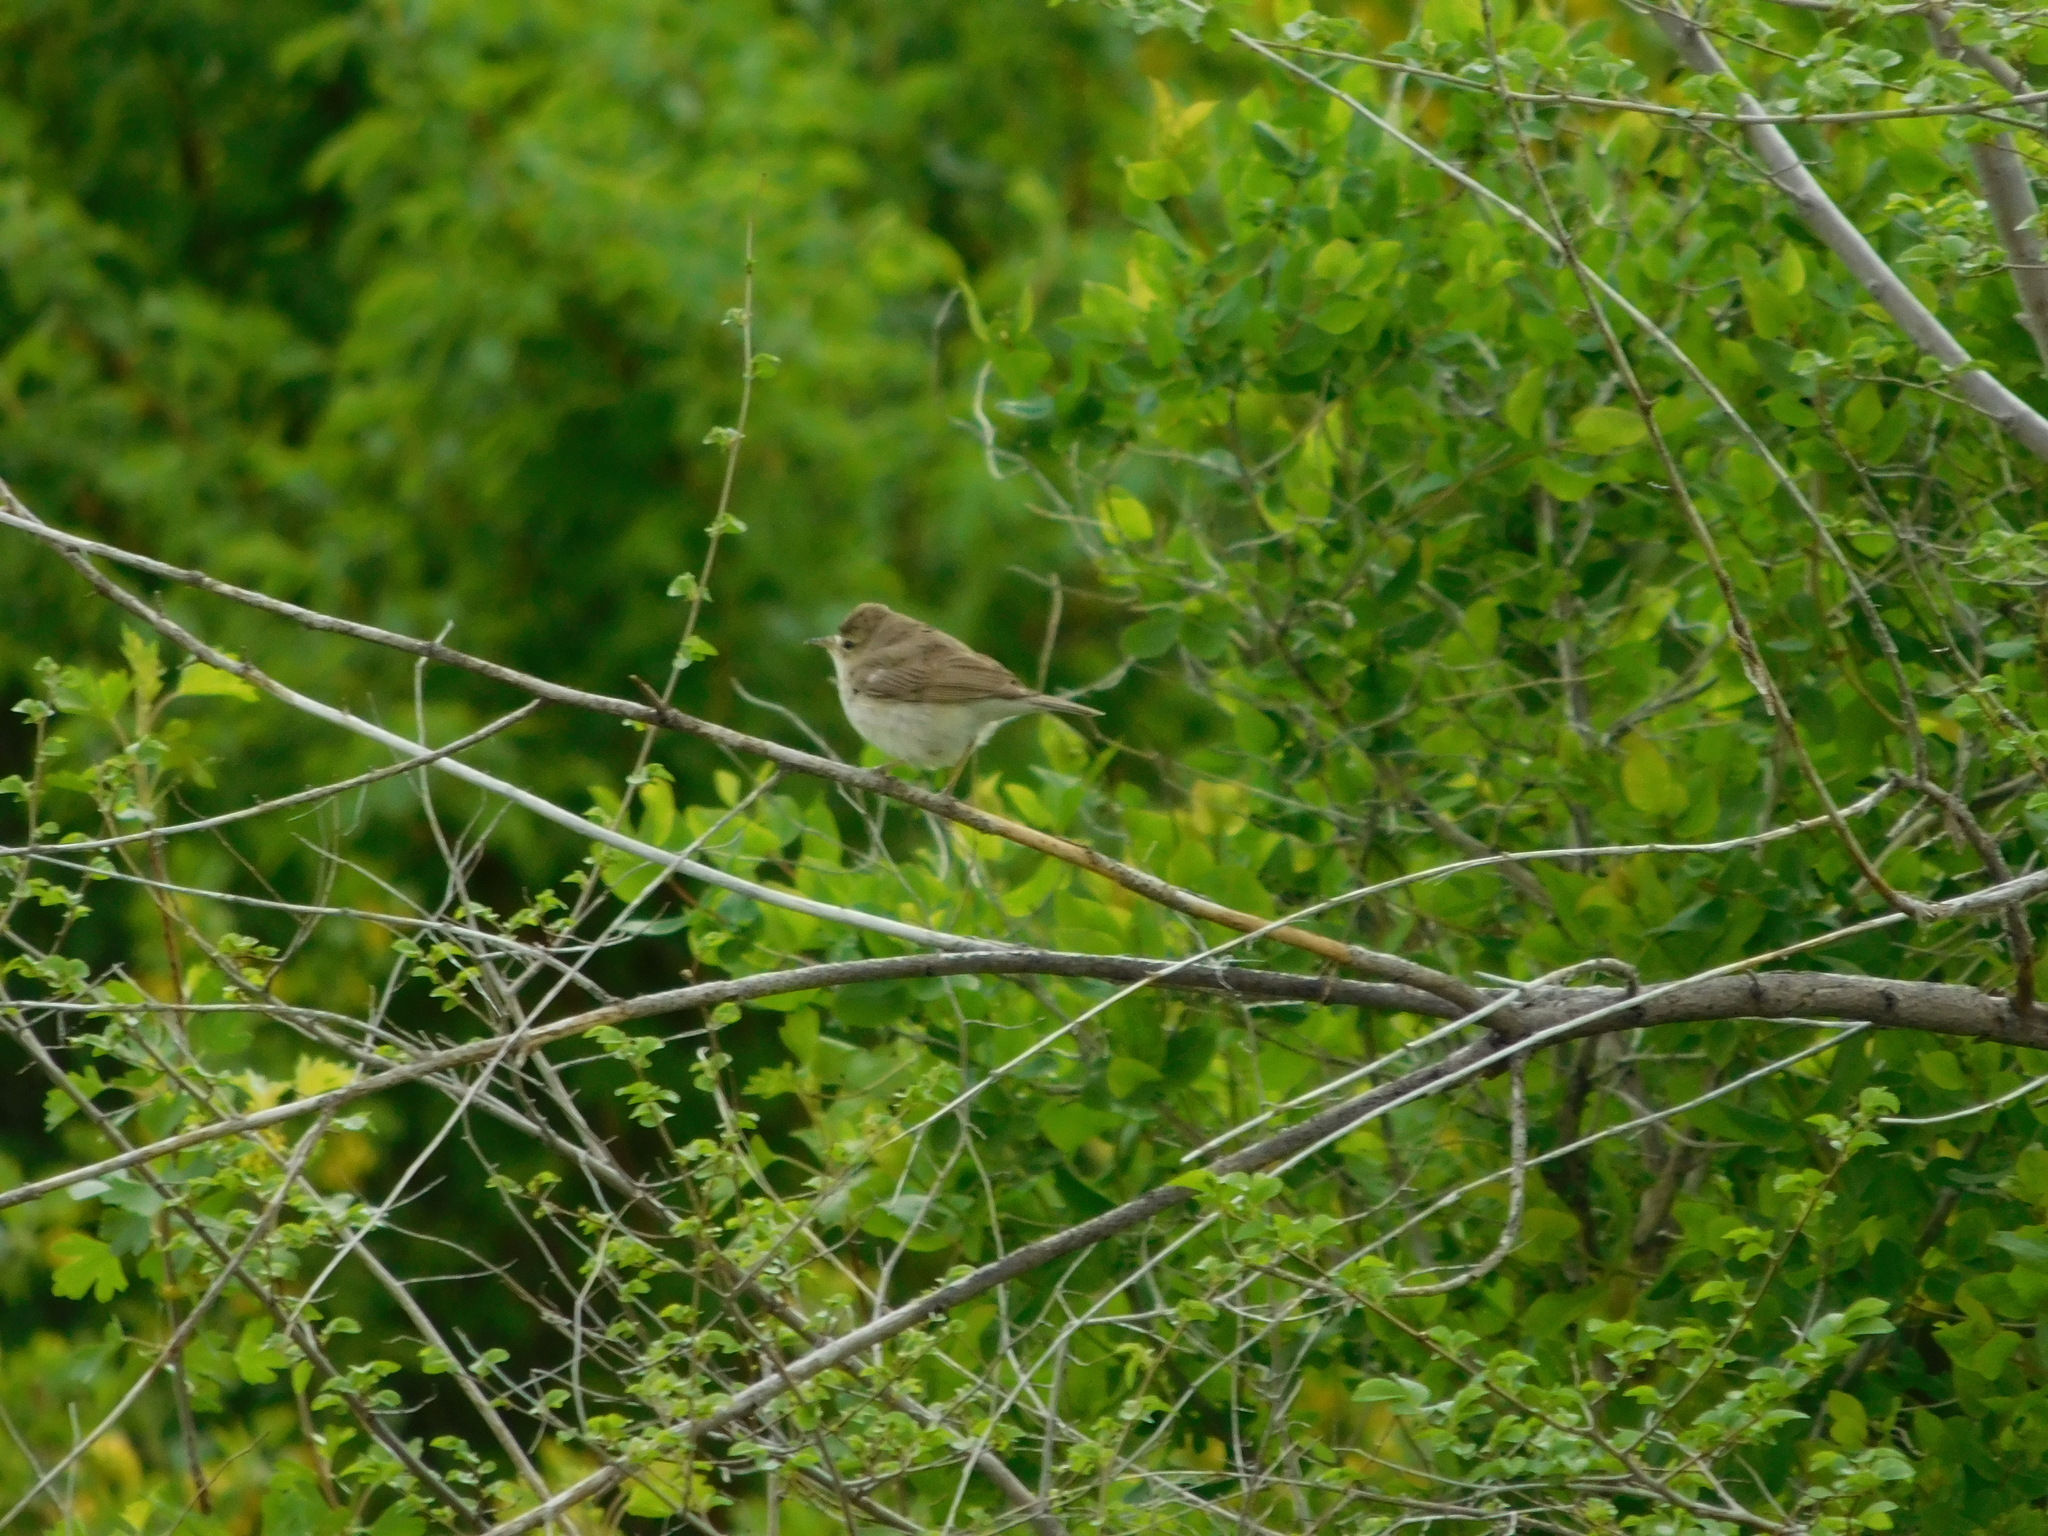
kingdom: Animalia
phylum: Chordata
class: Aves
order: Passeriformes
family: Acrocephalidae
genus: Iduna
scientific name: Iduna caligata
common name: Booted warbler
